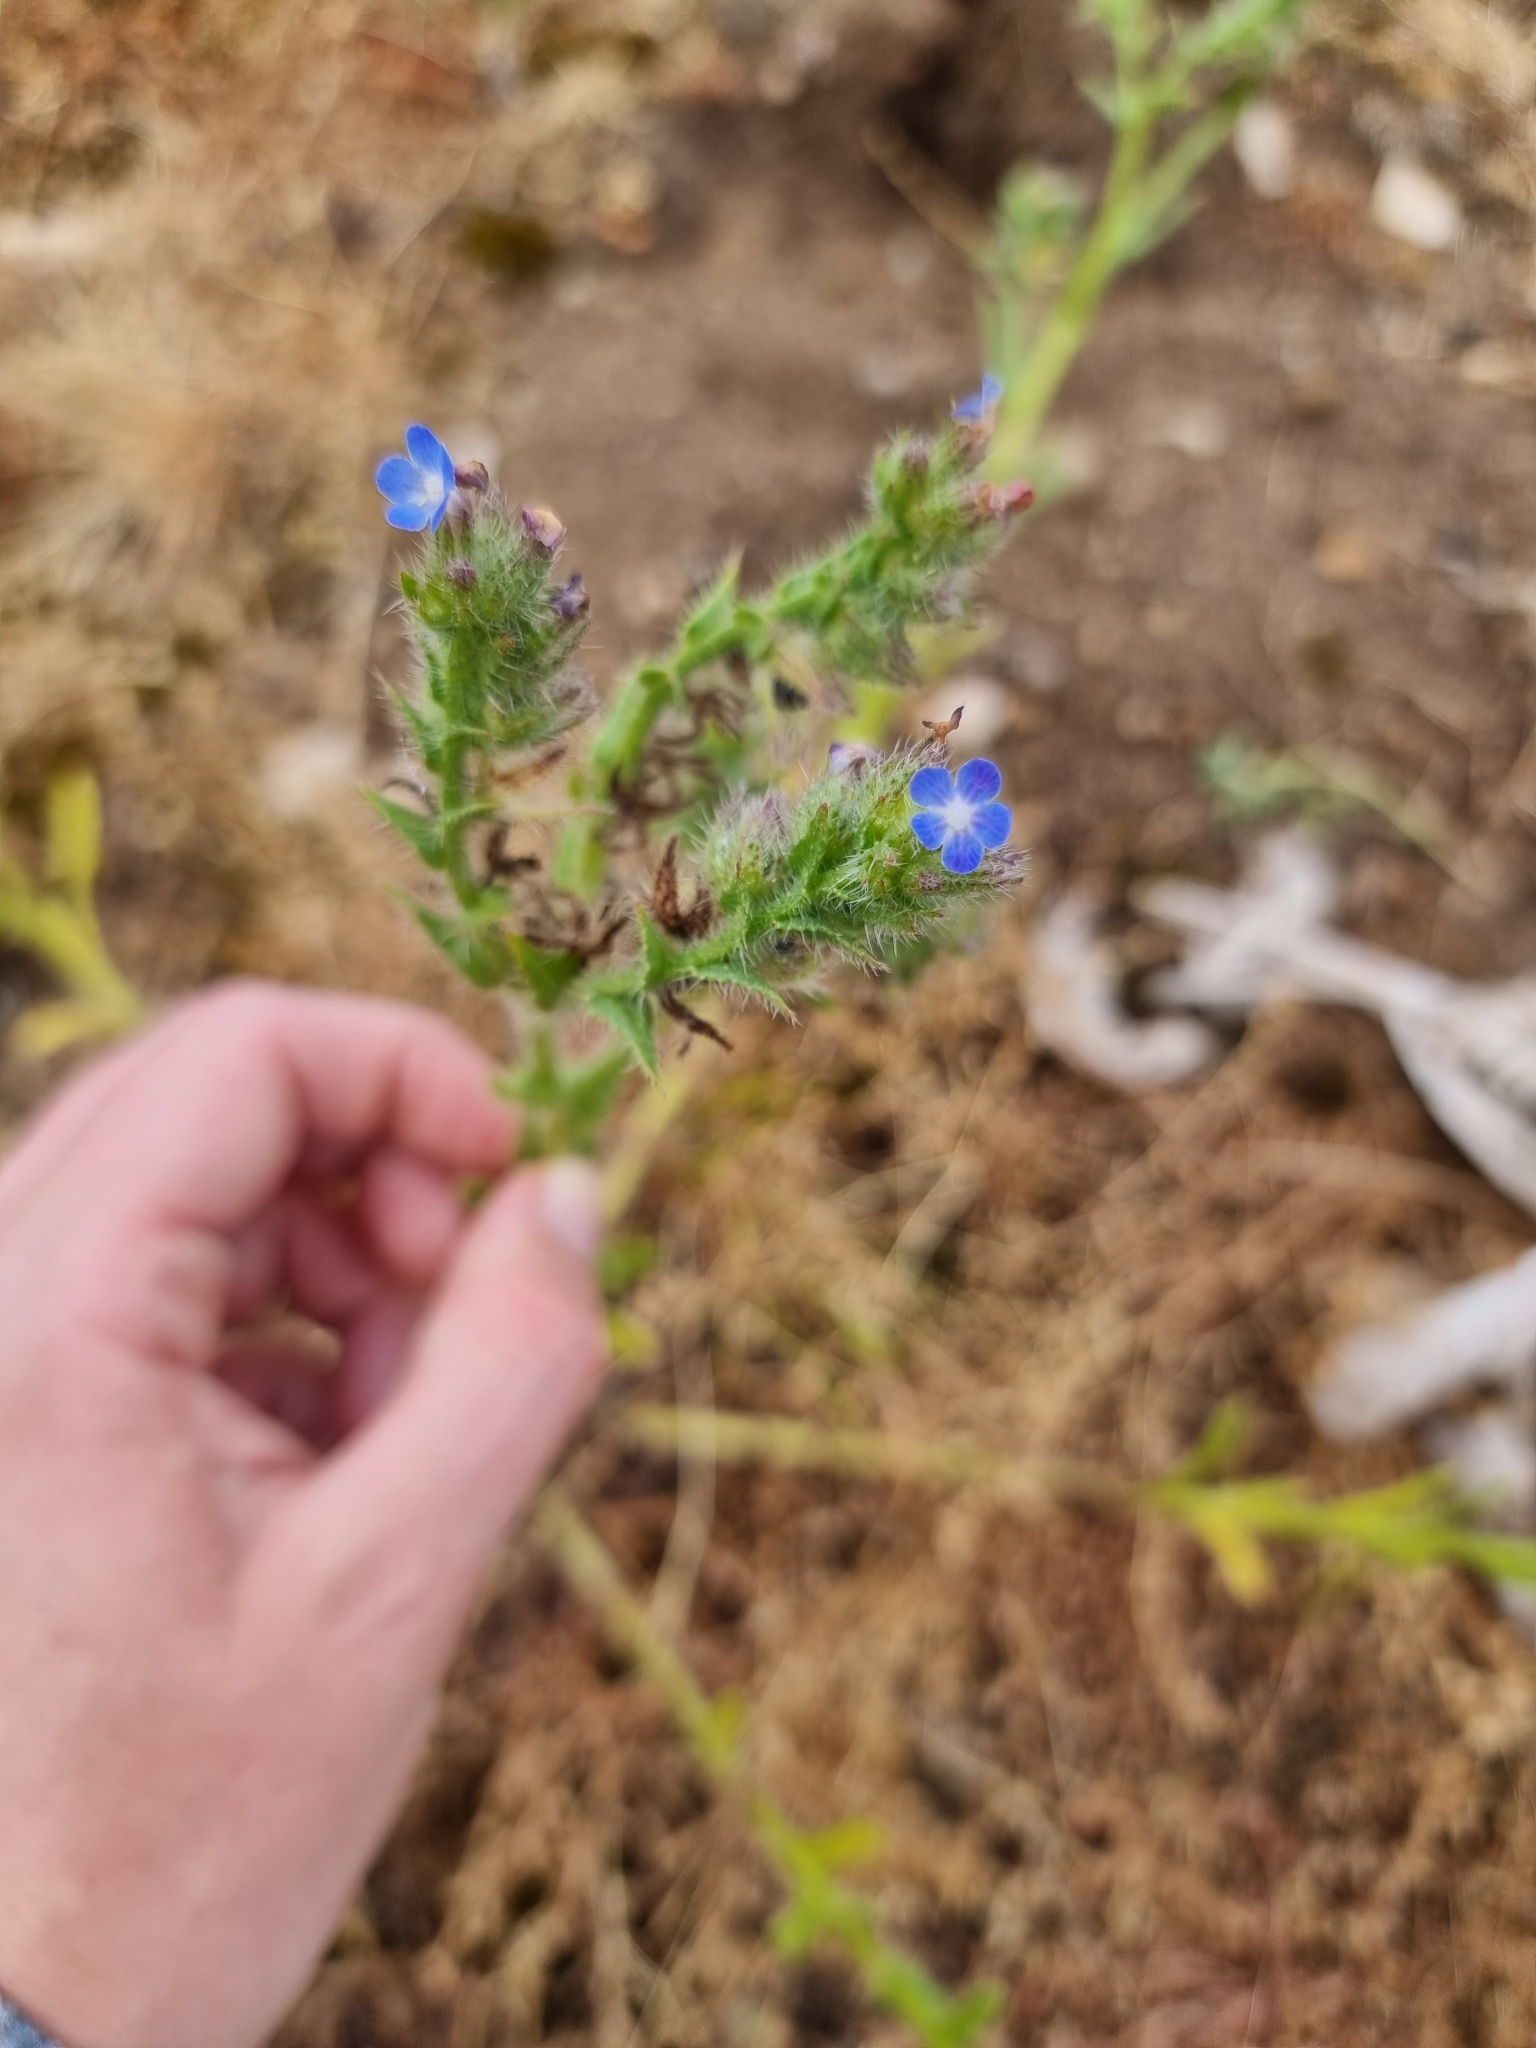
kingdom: Plantae
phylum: Tracheophyta
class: Magnoliopsida
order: Boraginales
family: Boraginaceae
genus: Lycopsis
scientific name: Lycopsis arvensis
